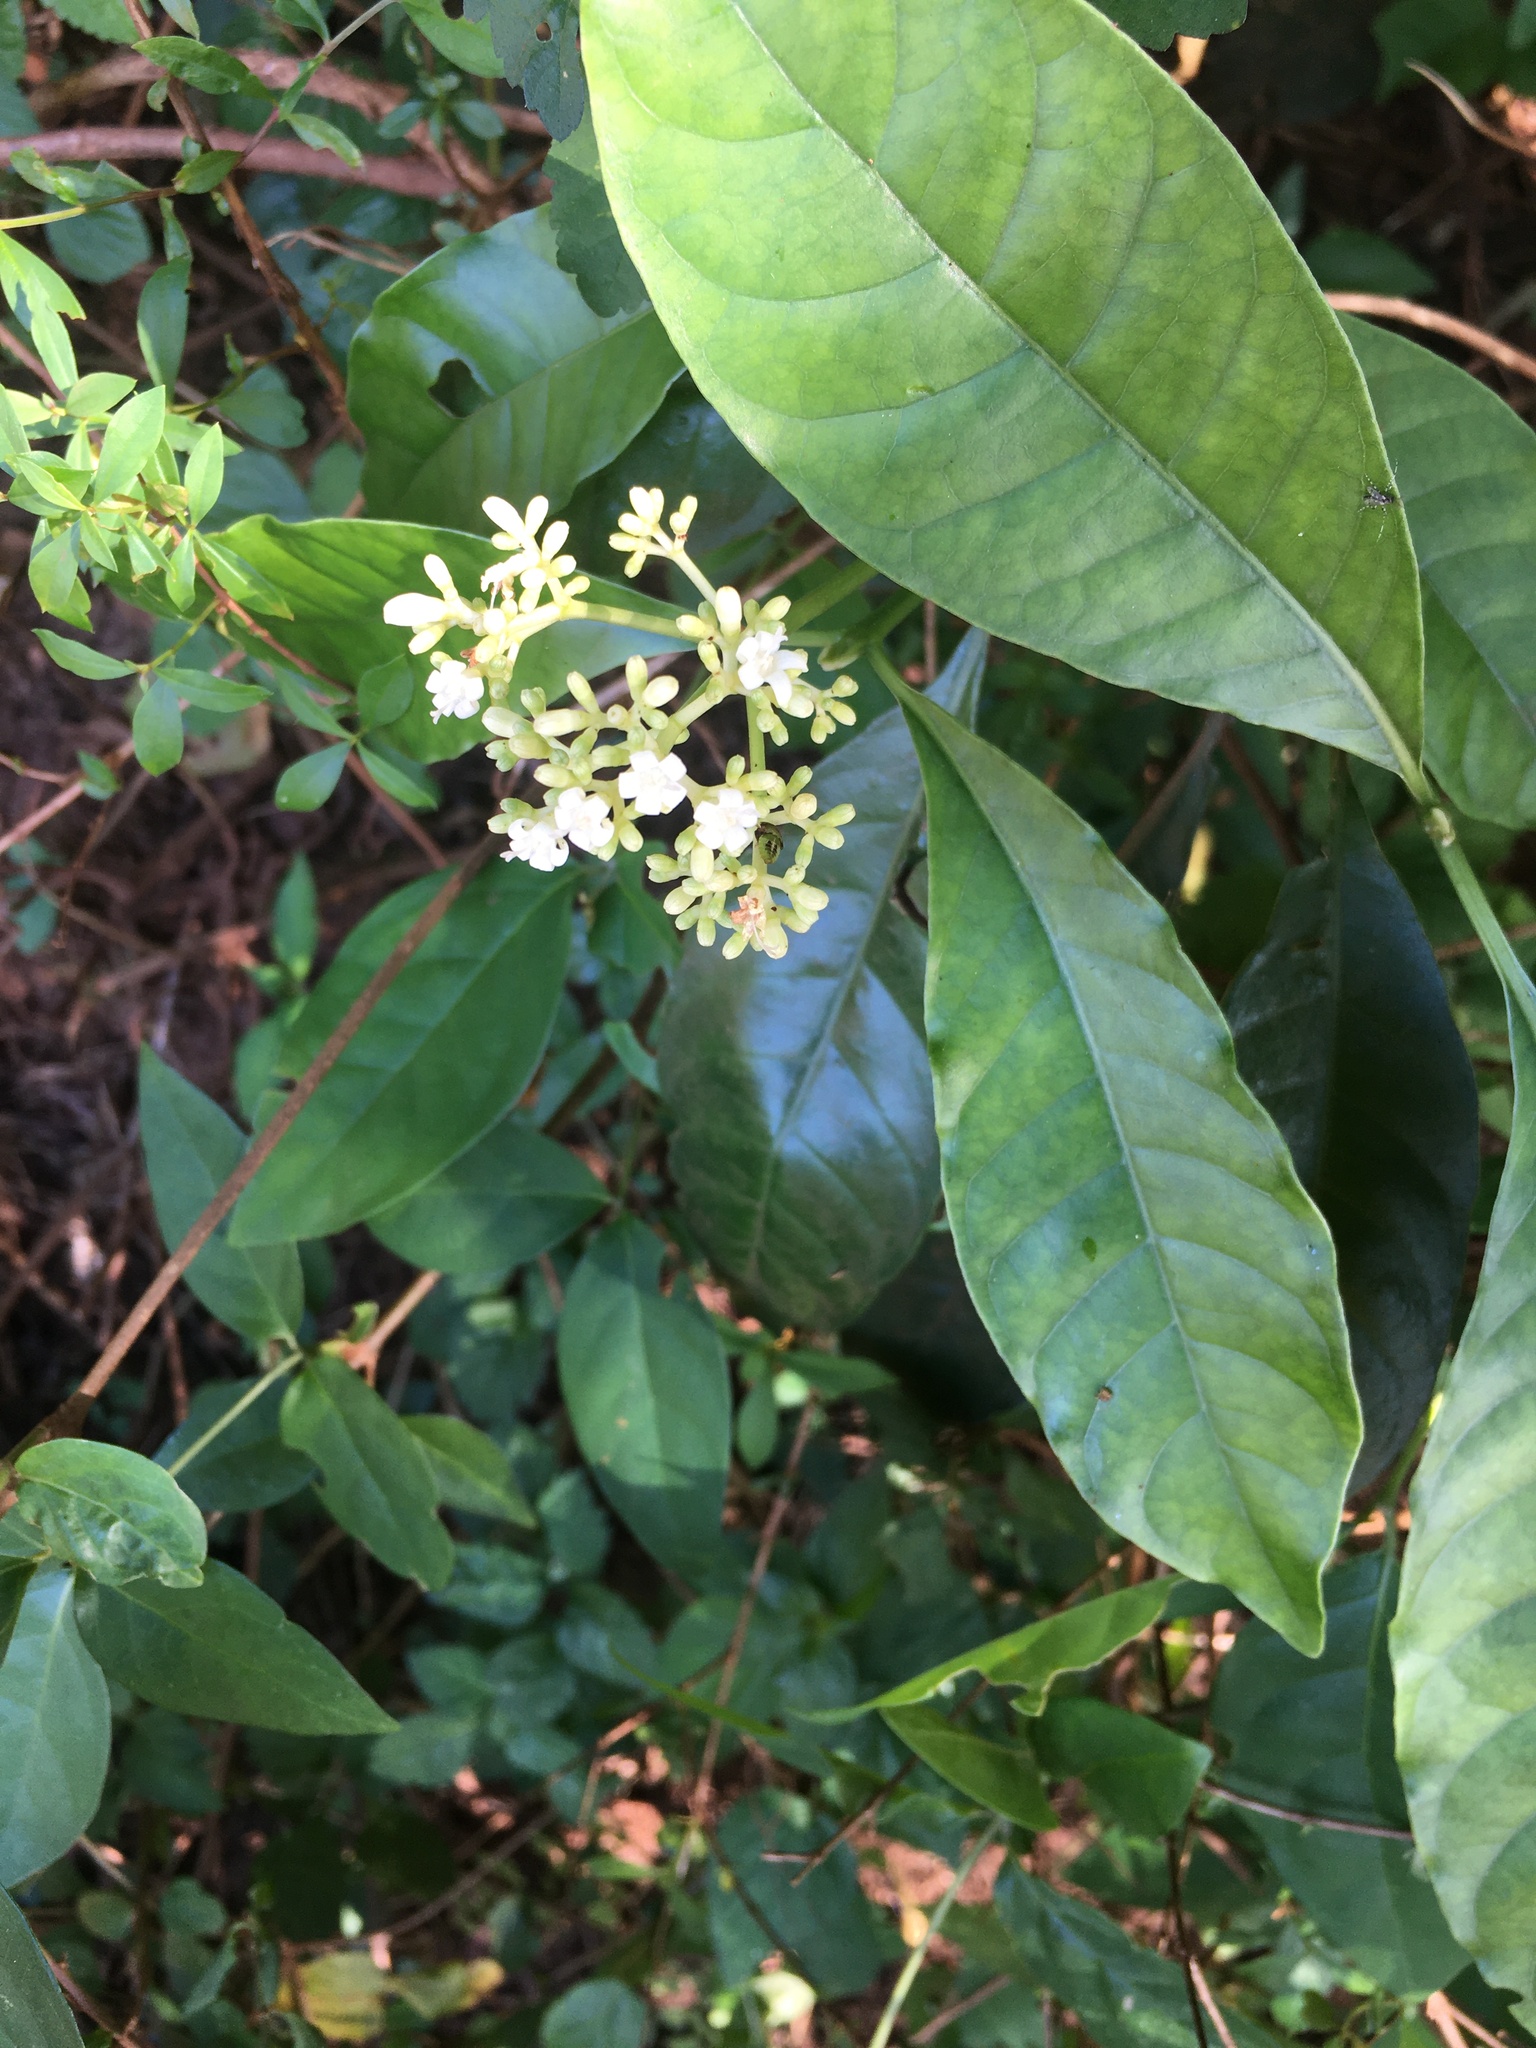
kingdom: Plantae
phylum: Tracheophyta
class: Magnoliopsida
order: Gentianales
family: Rubiaceae
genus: Psychotria
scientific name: Psychotria carthagenensis
